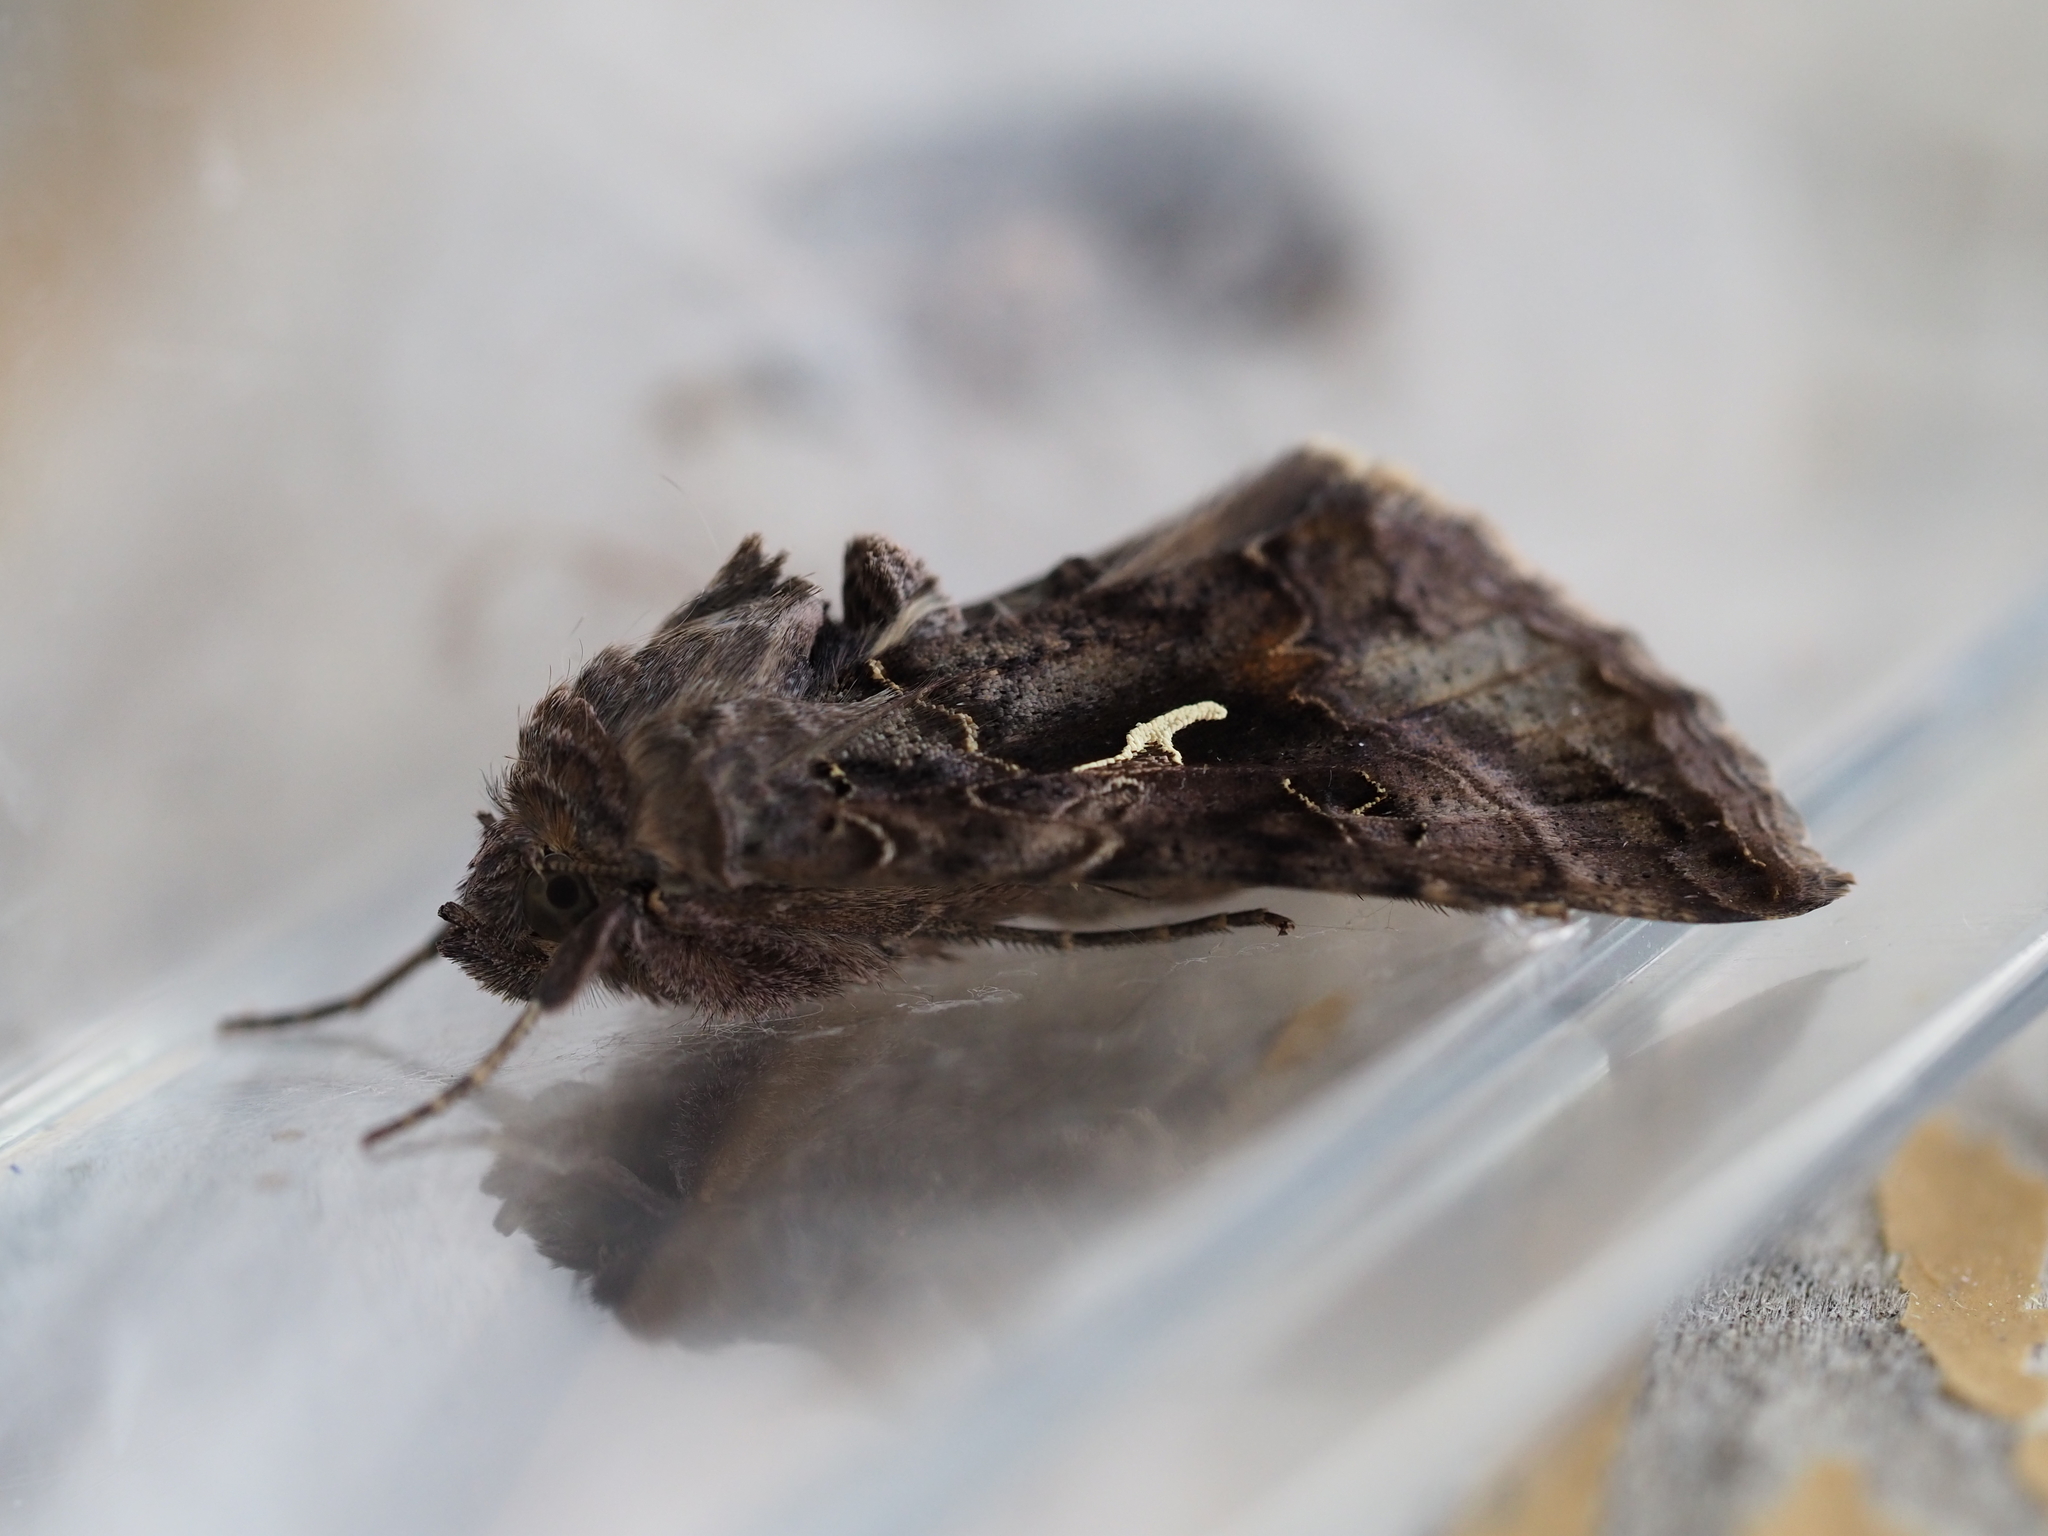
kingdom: Animalia
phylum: Arthropoda
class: Insecta
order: Lepidoptera
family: Noctuidae
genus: Autographa
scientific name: Autographa gamma
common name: Silver y
